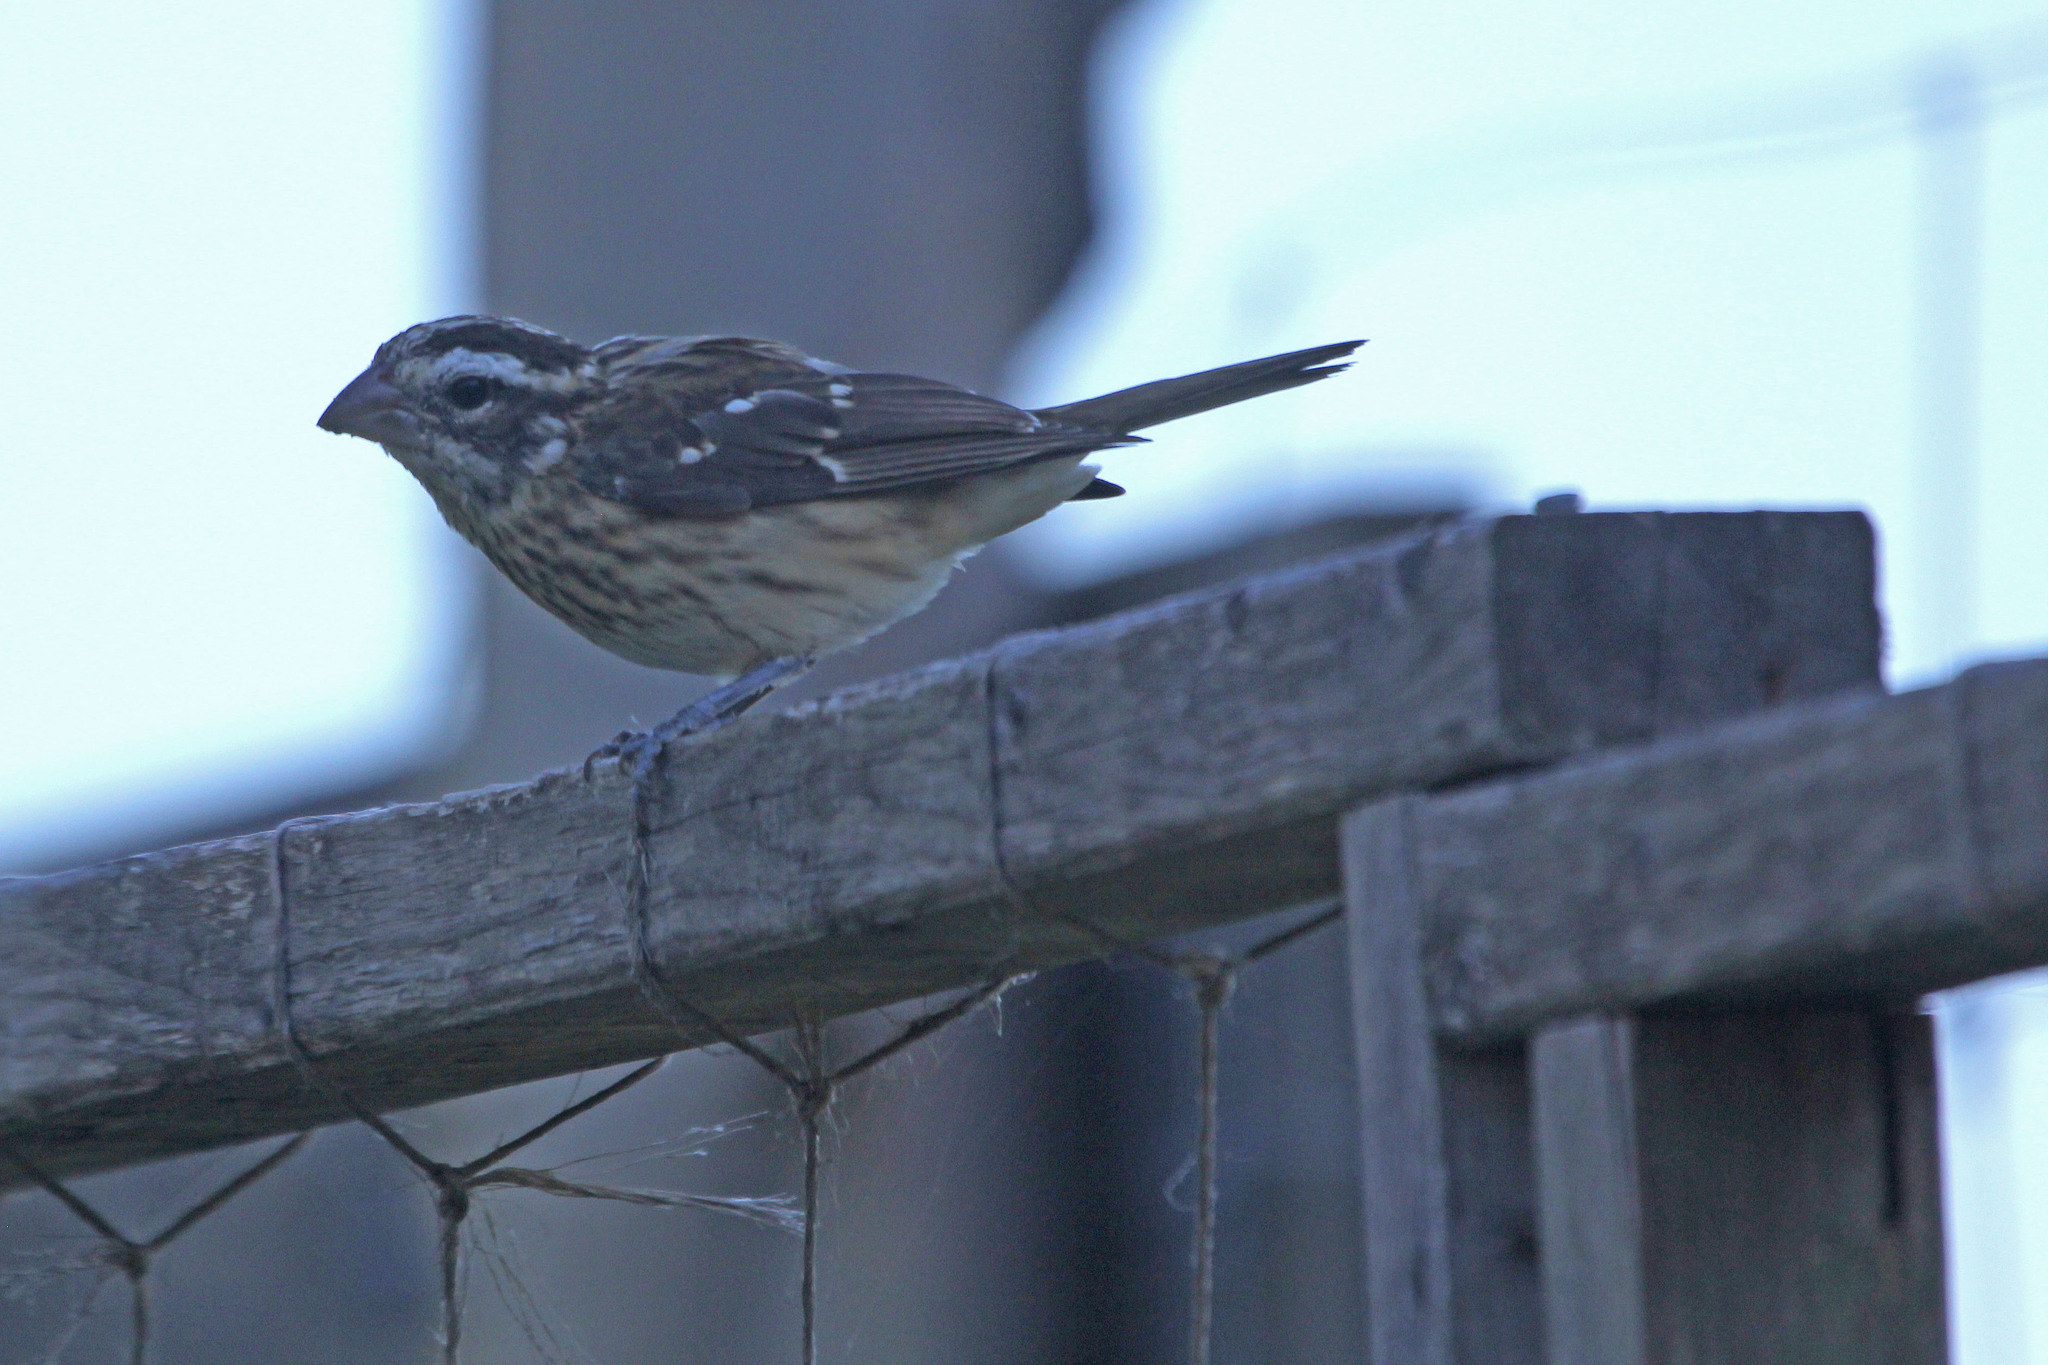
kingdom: Animalia
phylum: Chordata
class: Aves
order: Passeriformes
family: Cardinalidae
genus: Pheucticus
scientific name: Pheucticus ludovicianus
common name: Rose-breasted grosbeak
